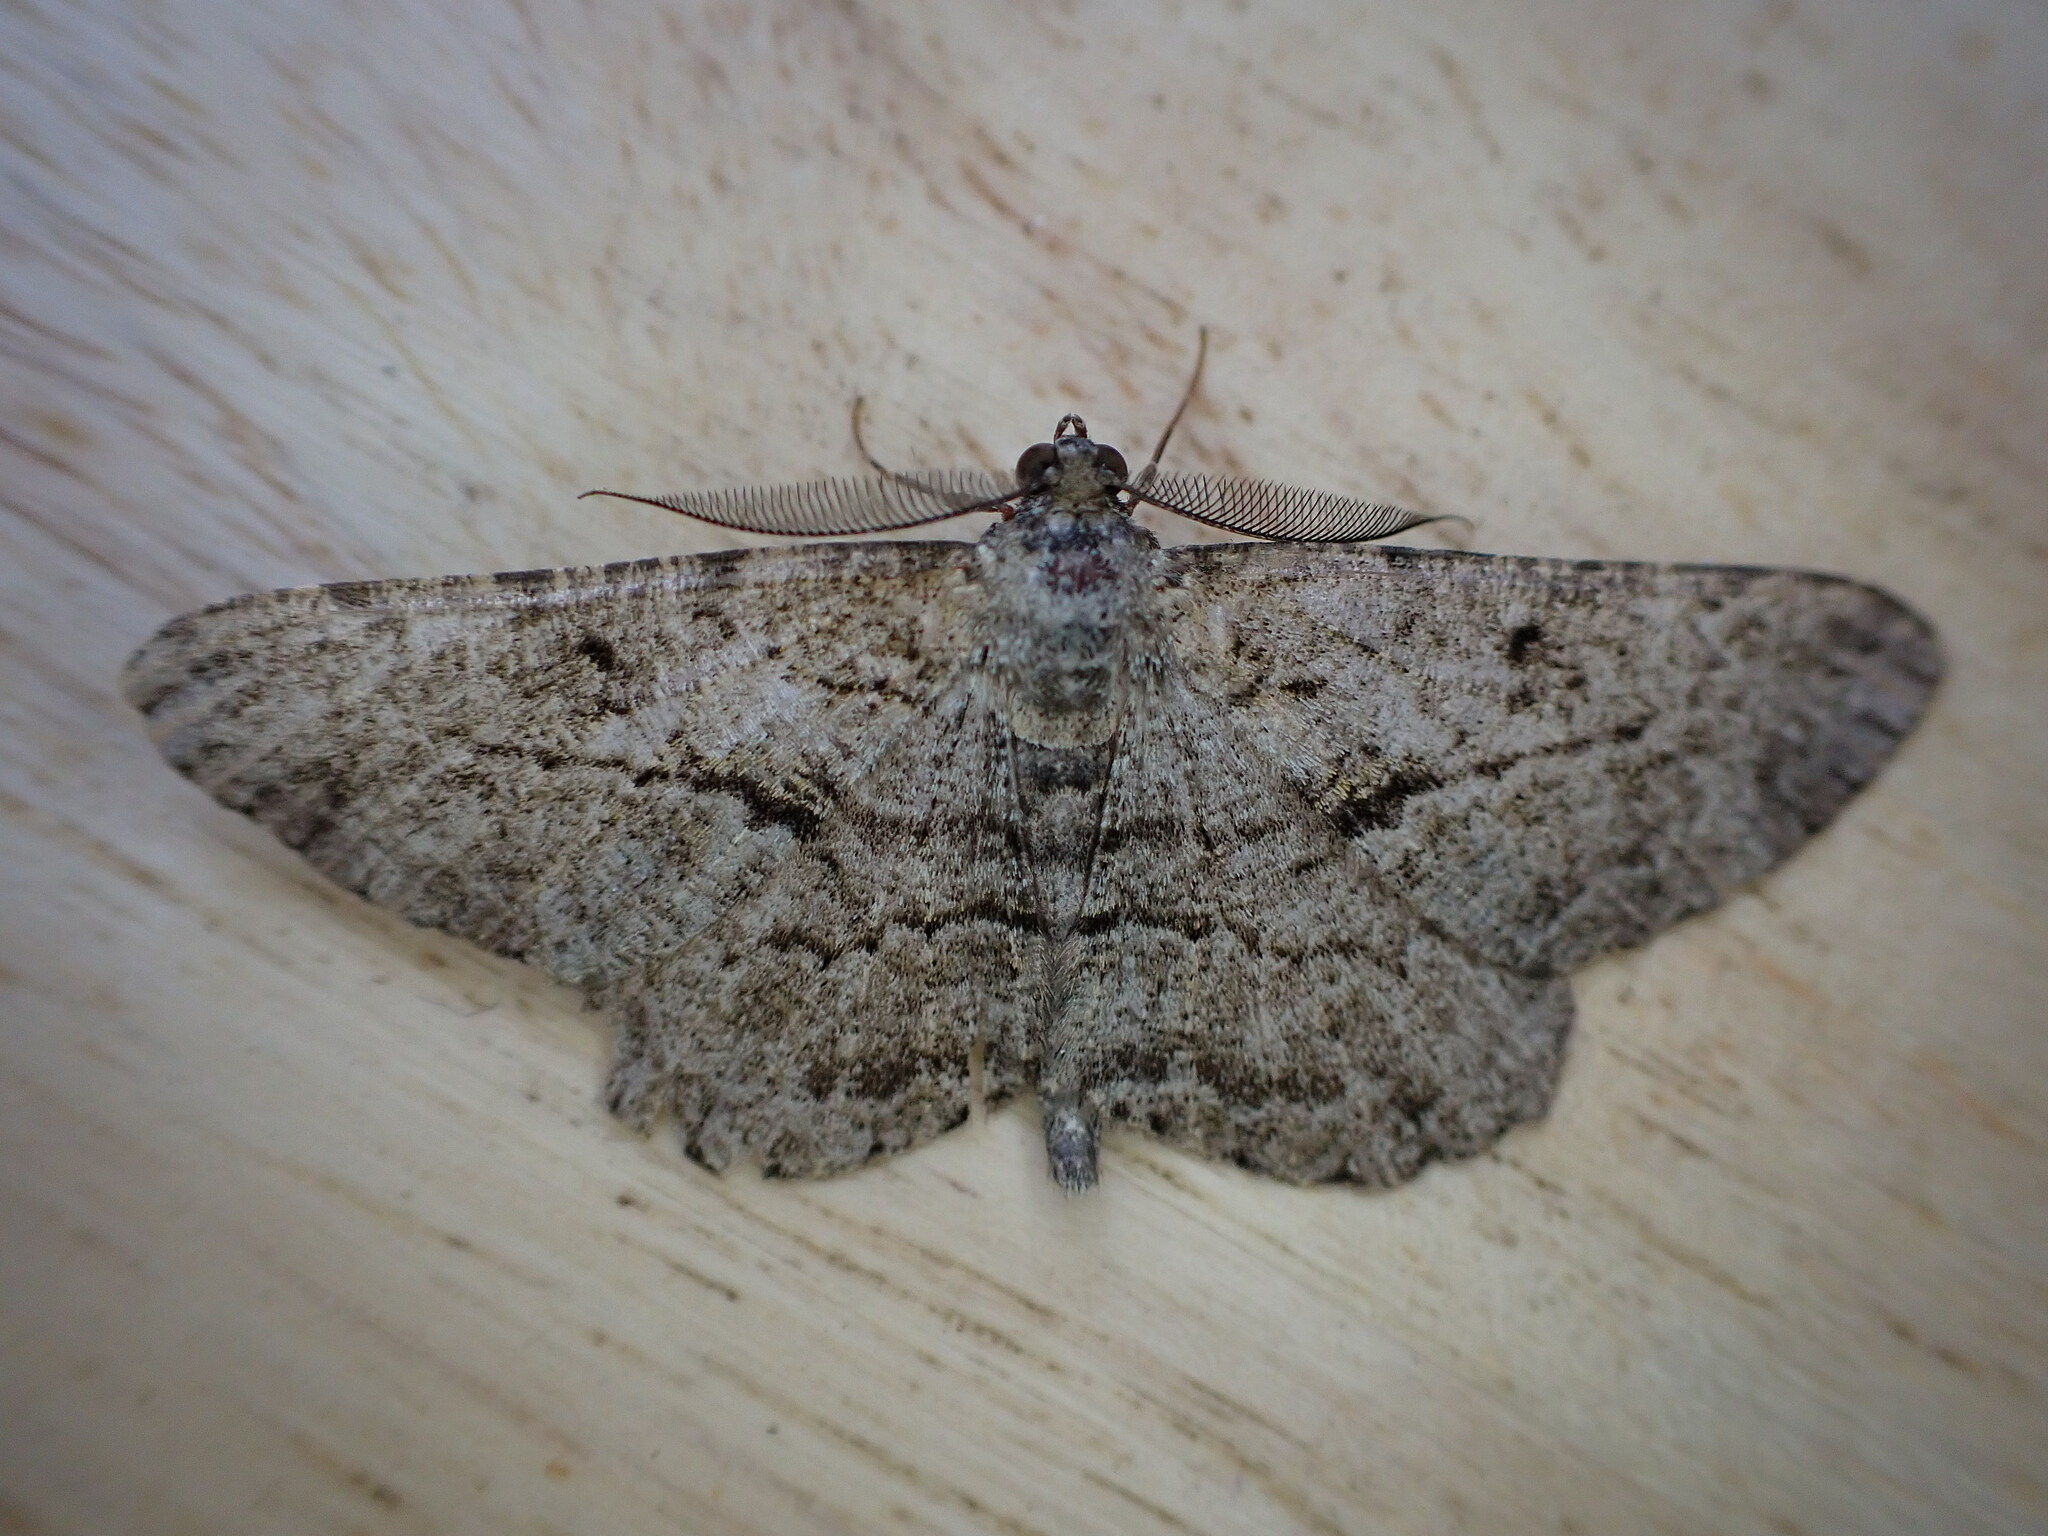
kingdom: Animalia
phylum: Arthropoda
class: Insecta
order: Lepidoptera
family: Geometridae
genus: Peribatodes
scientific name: Peribatodes rhomboidaria
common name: Willow beauty
